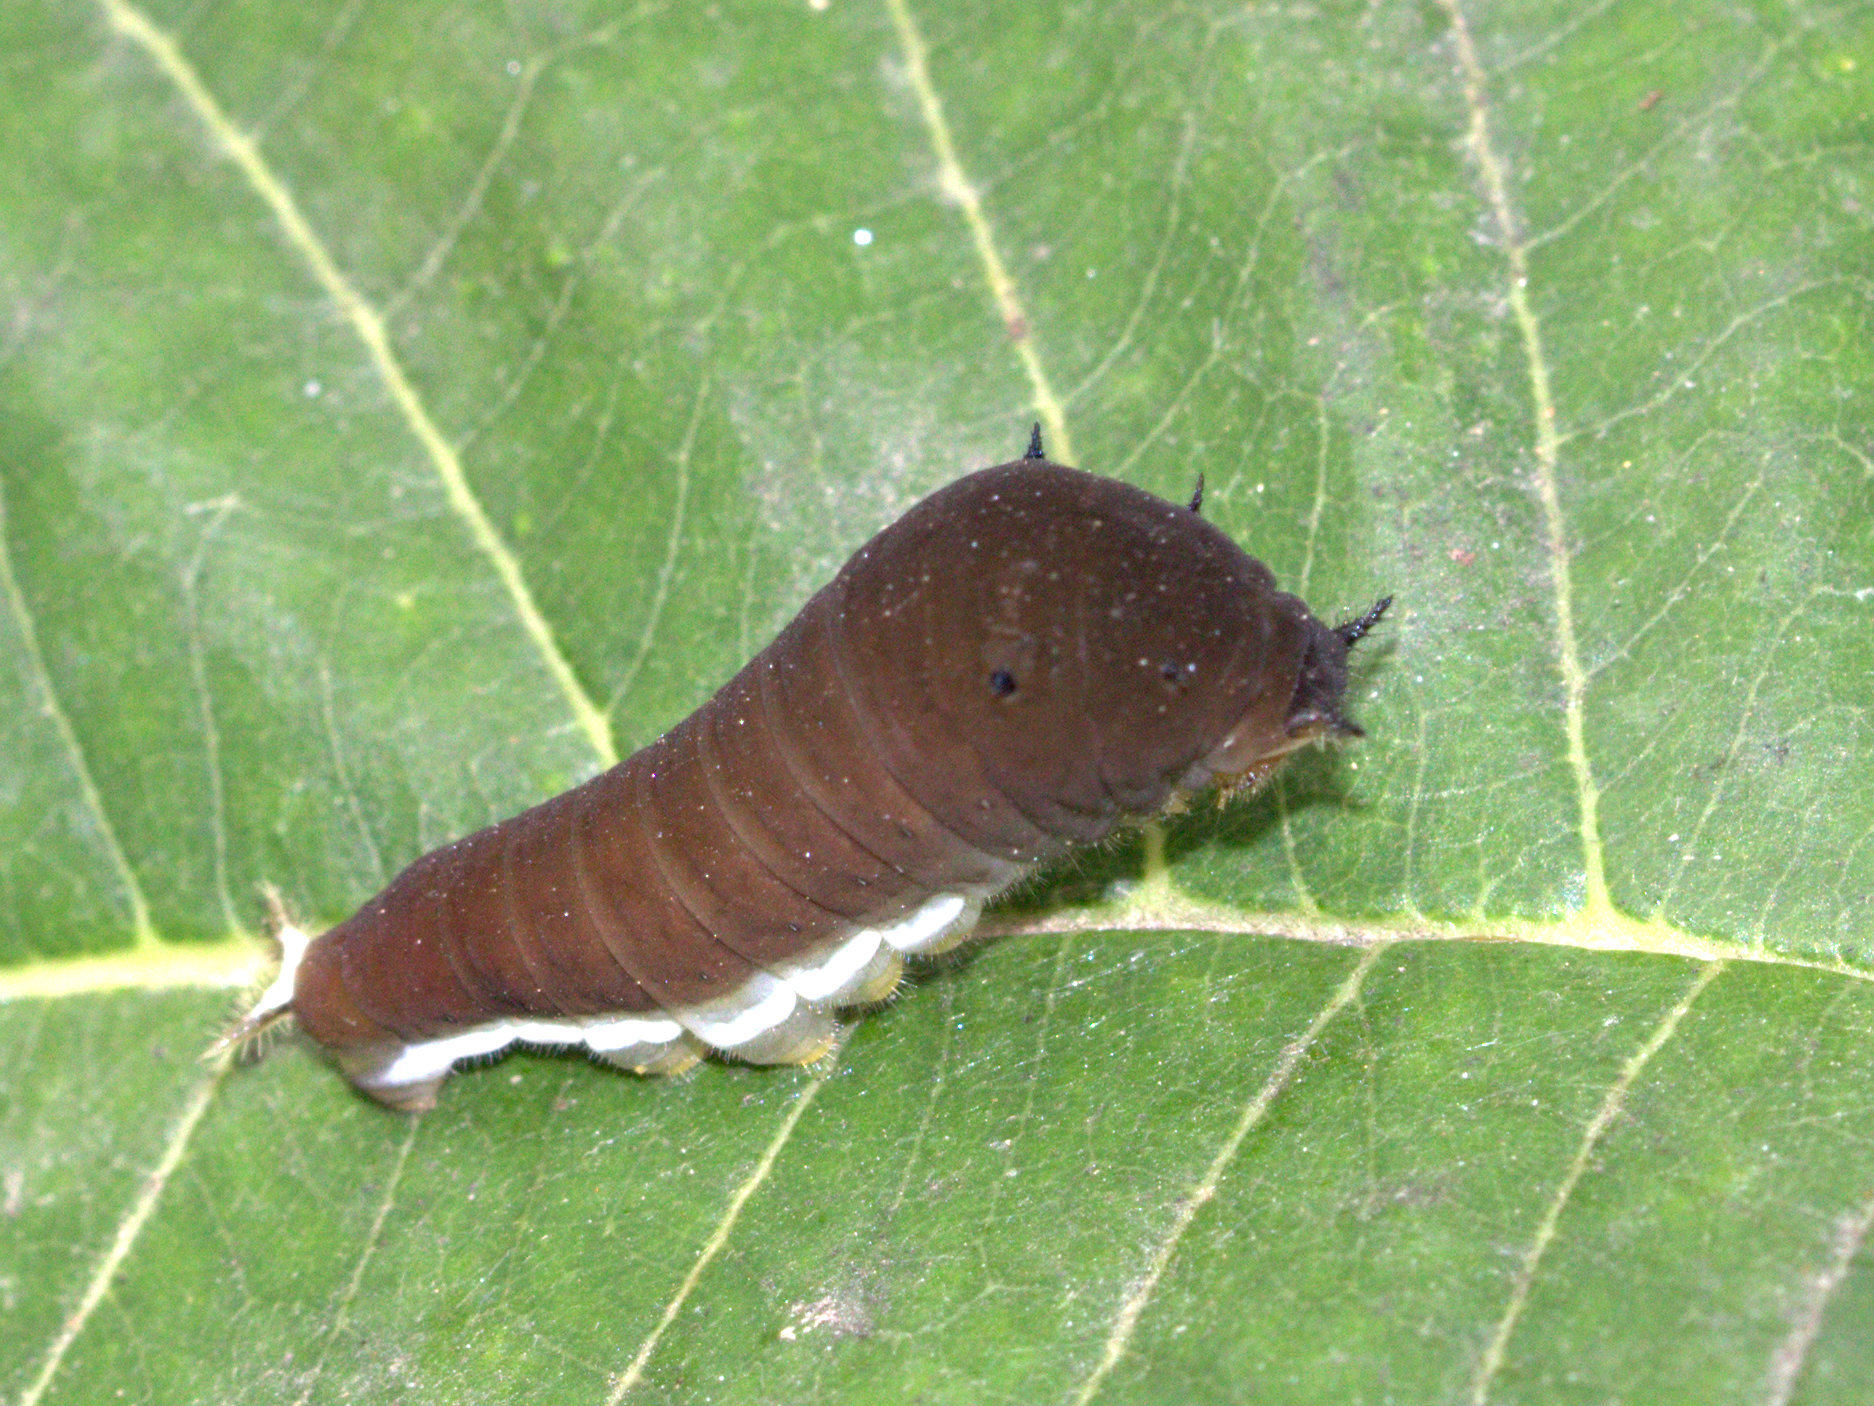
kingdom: Animalia
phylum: Arthropoda
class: Insecta
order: Lepidoptera
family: Papilionidae
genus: Graphium
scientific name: Graphium doson
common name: Common jay
